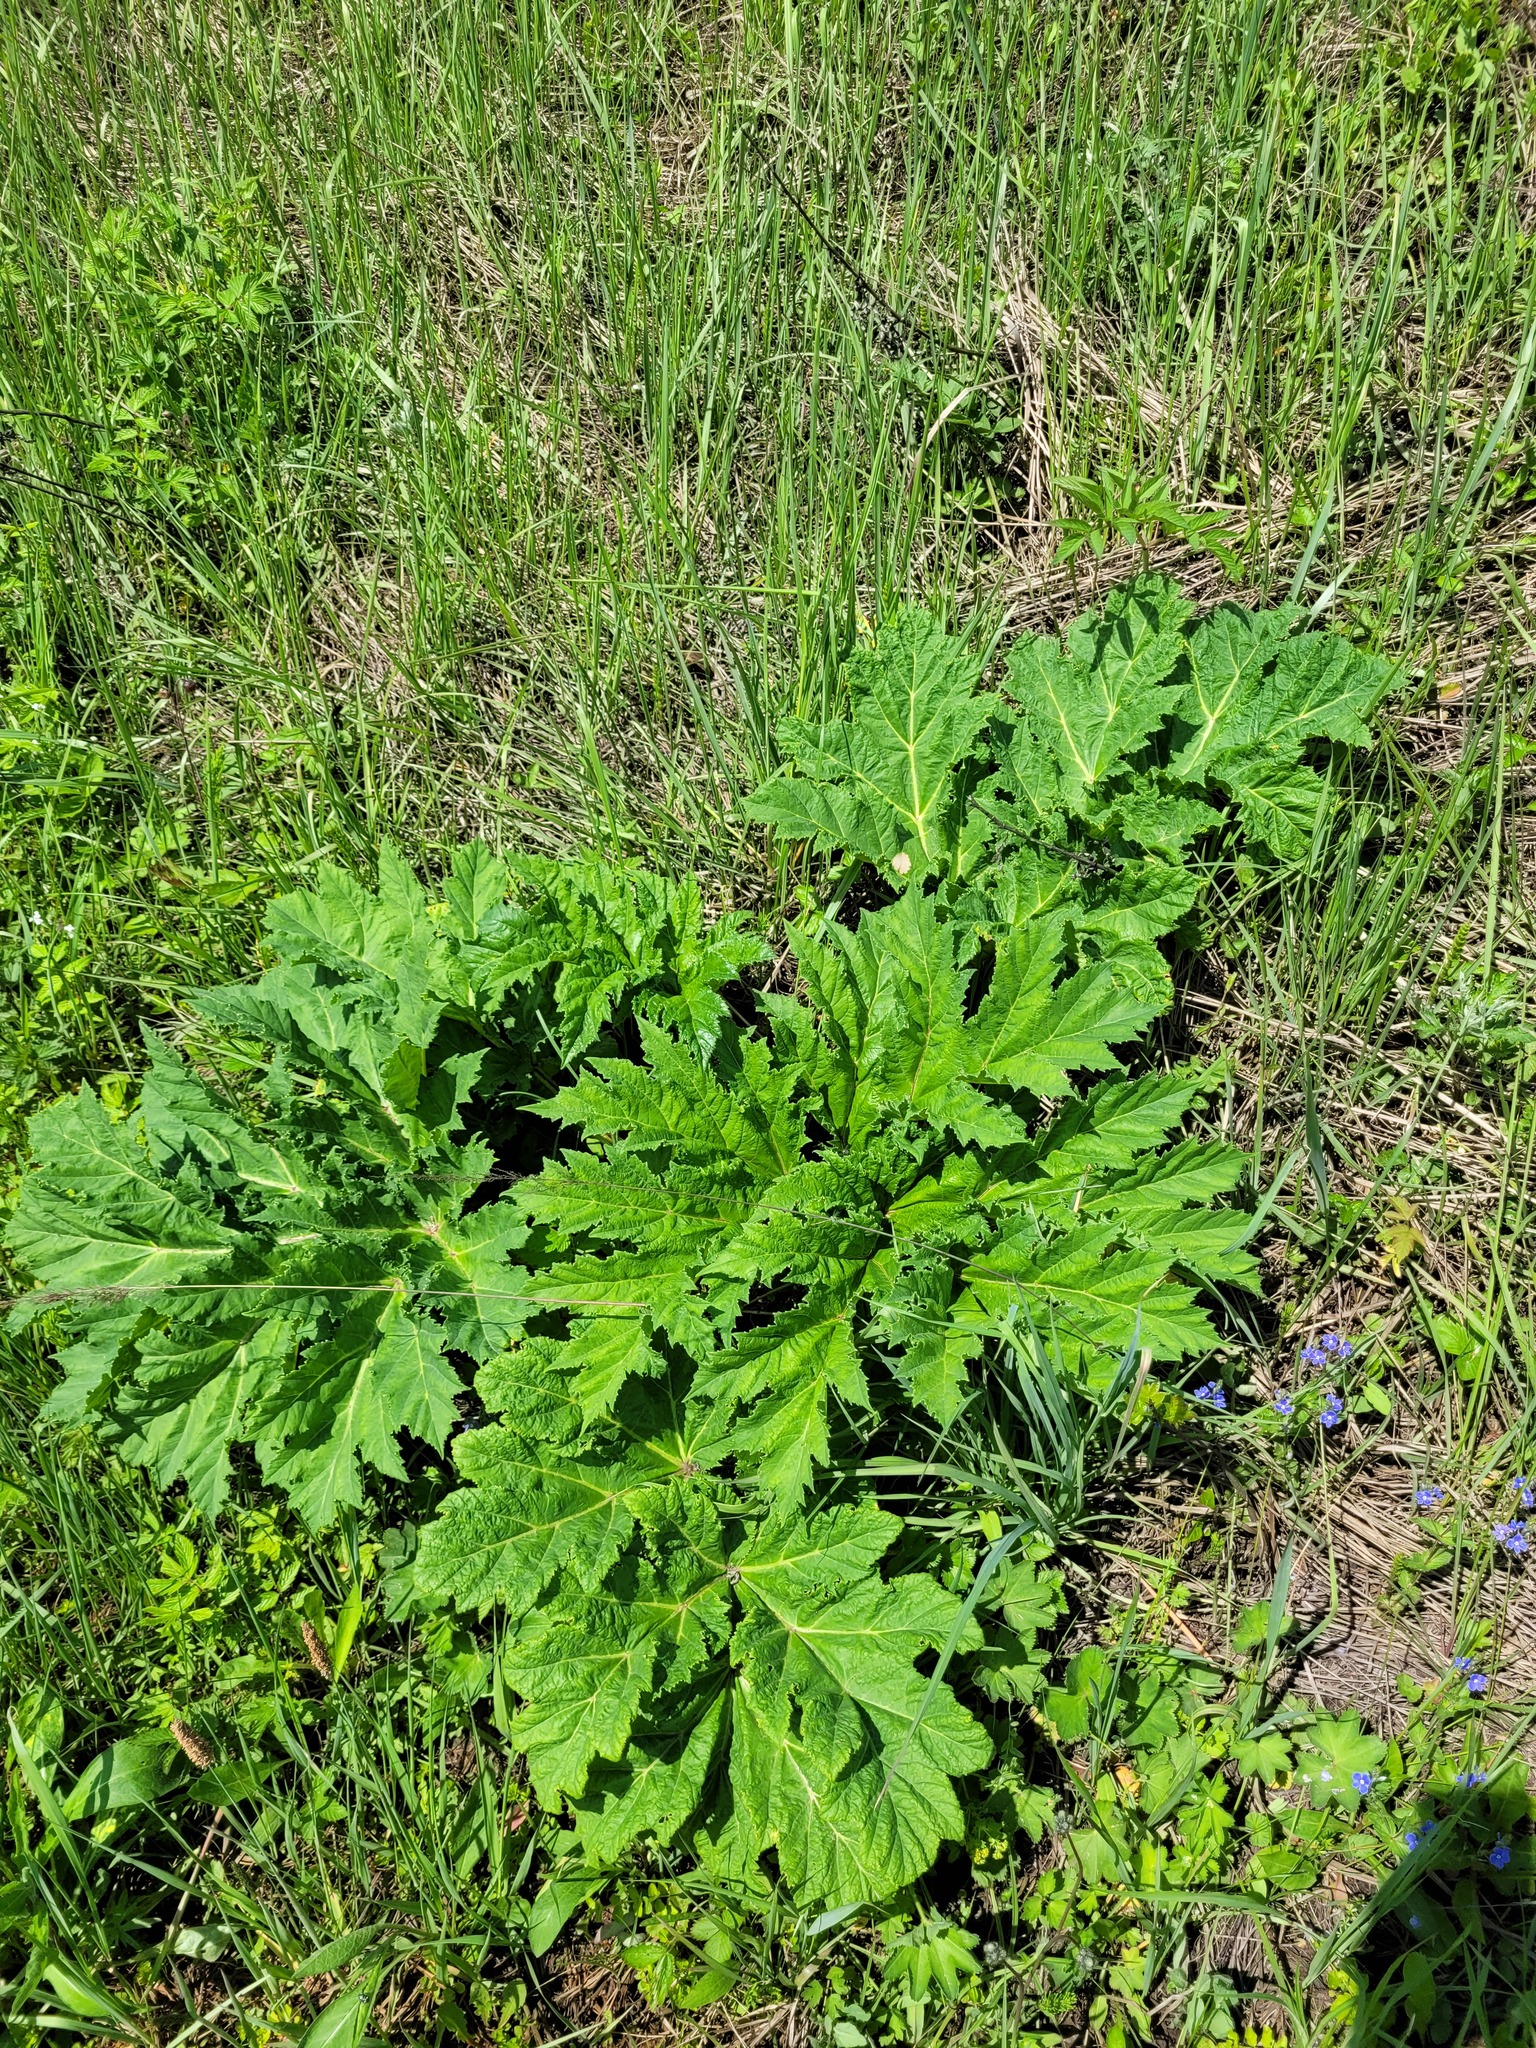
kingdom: Plantae
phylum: Tracheophyta
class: Magnoliopsida
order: Apiales
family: Apiaceae
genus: Heracleum
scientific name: Heracleum sosnowskyi
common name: Sosnowsky's hogweed
